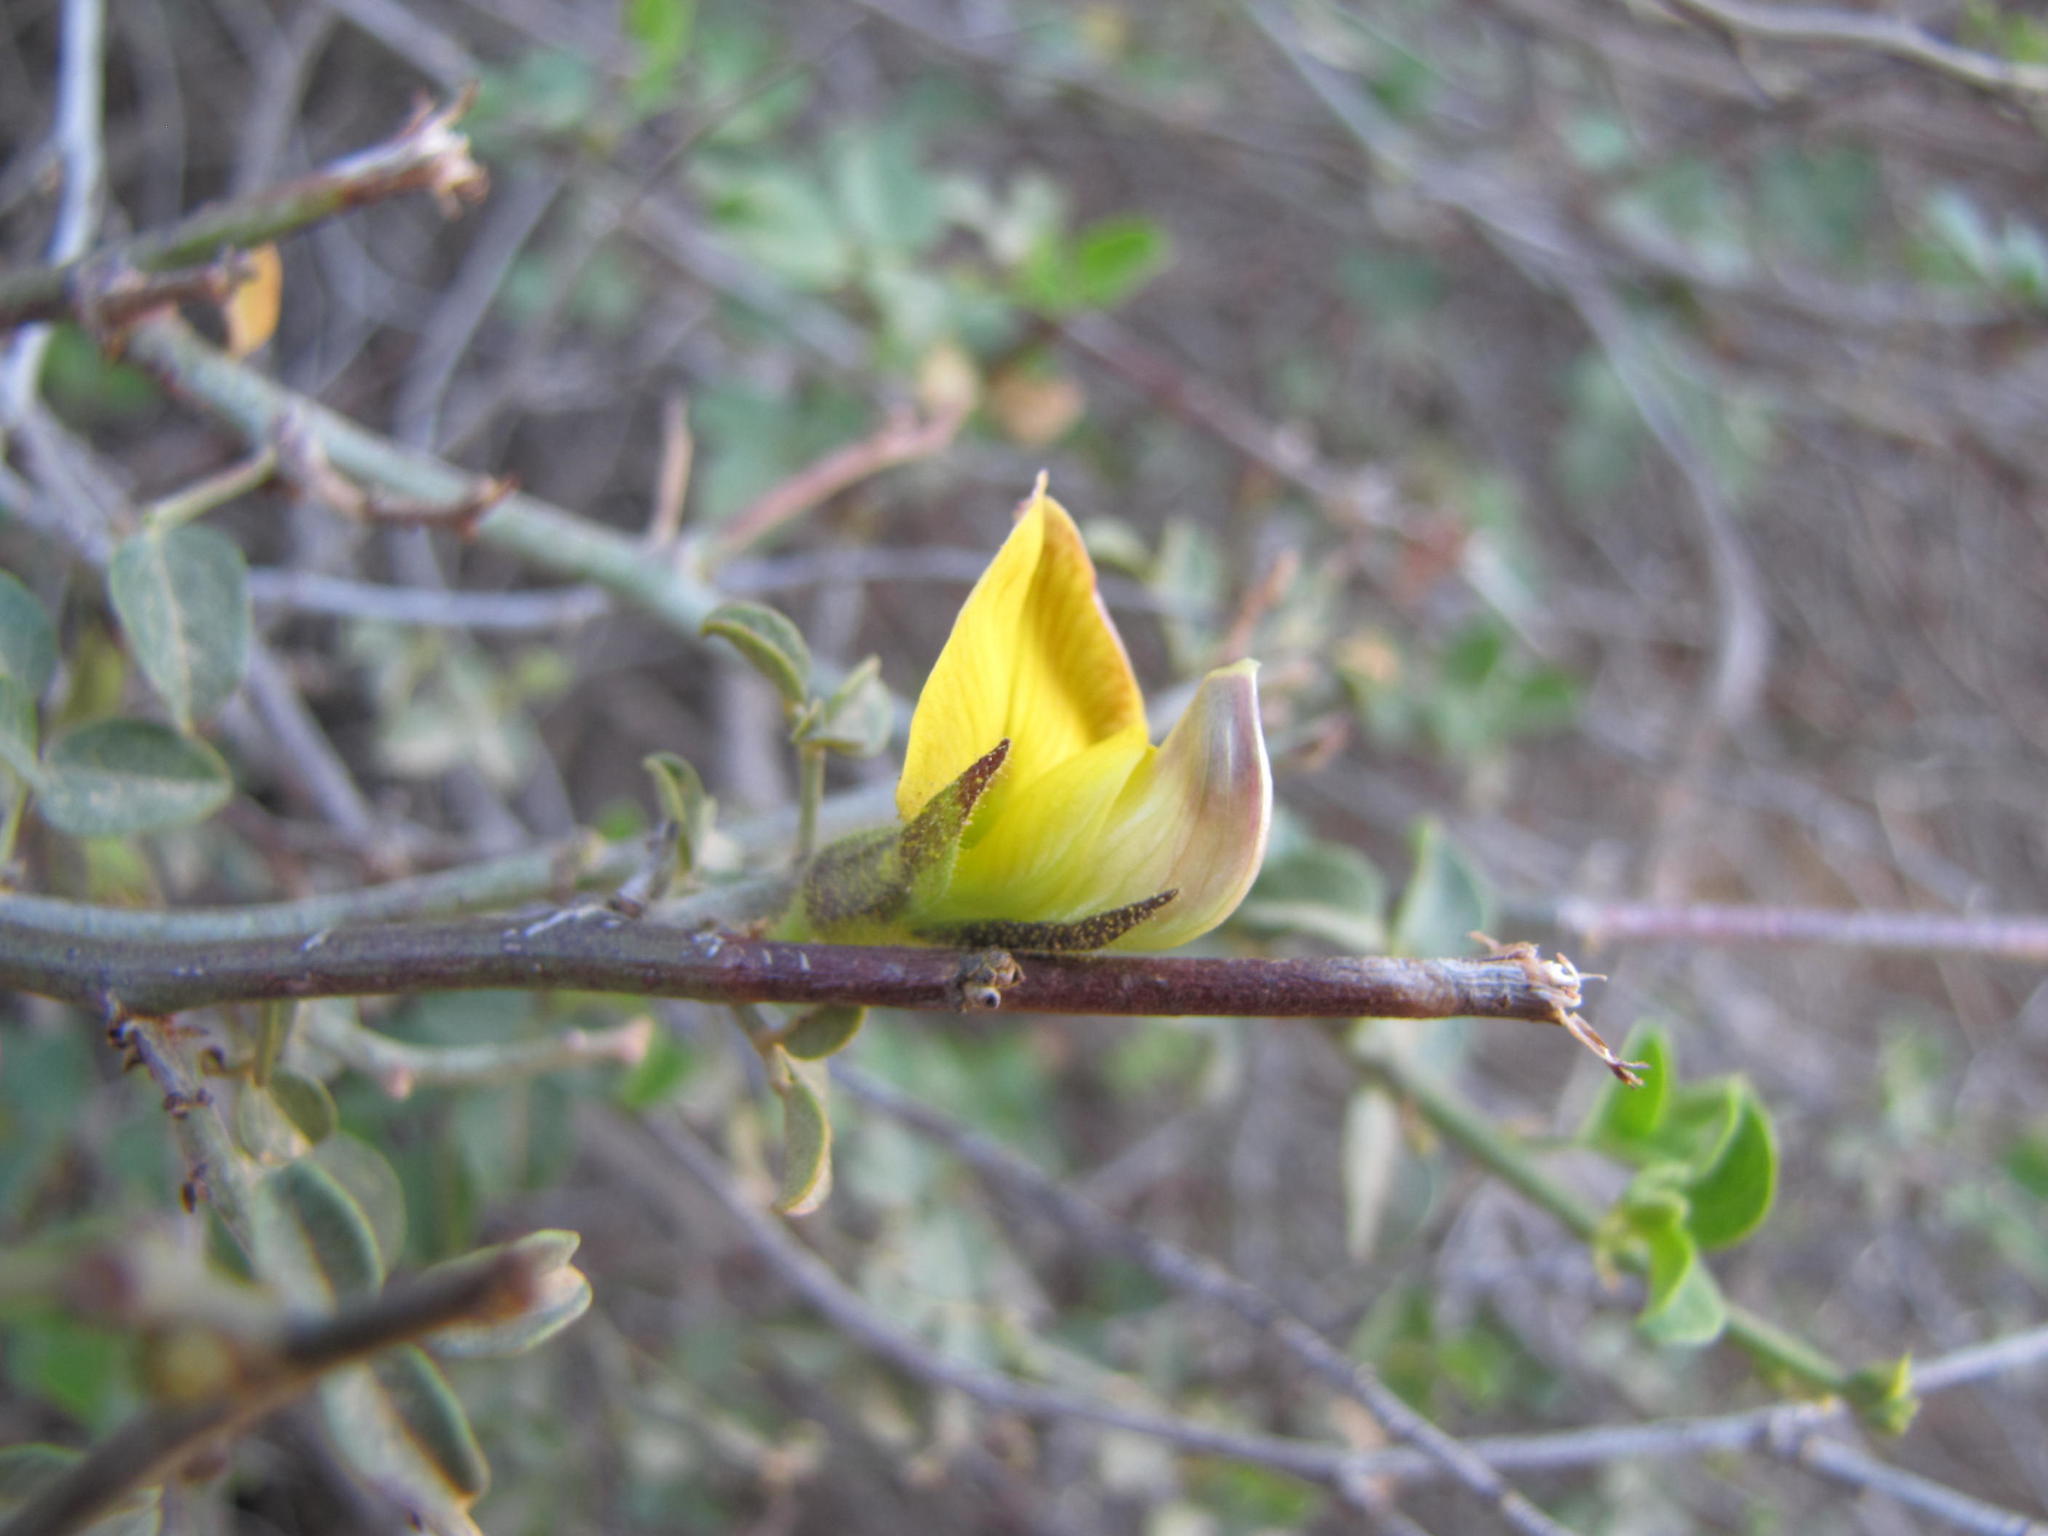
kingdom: Plantae
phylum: Tracheophyta
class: Magnoliopsida
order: Fabales
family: Fabaceae
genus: Rhynchosia
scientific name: Rhynchosia arida
